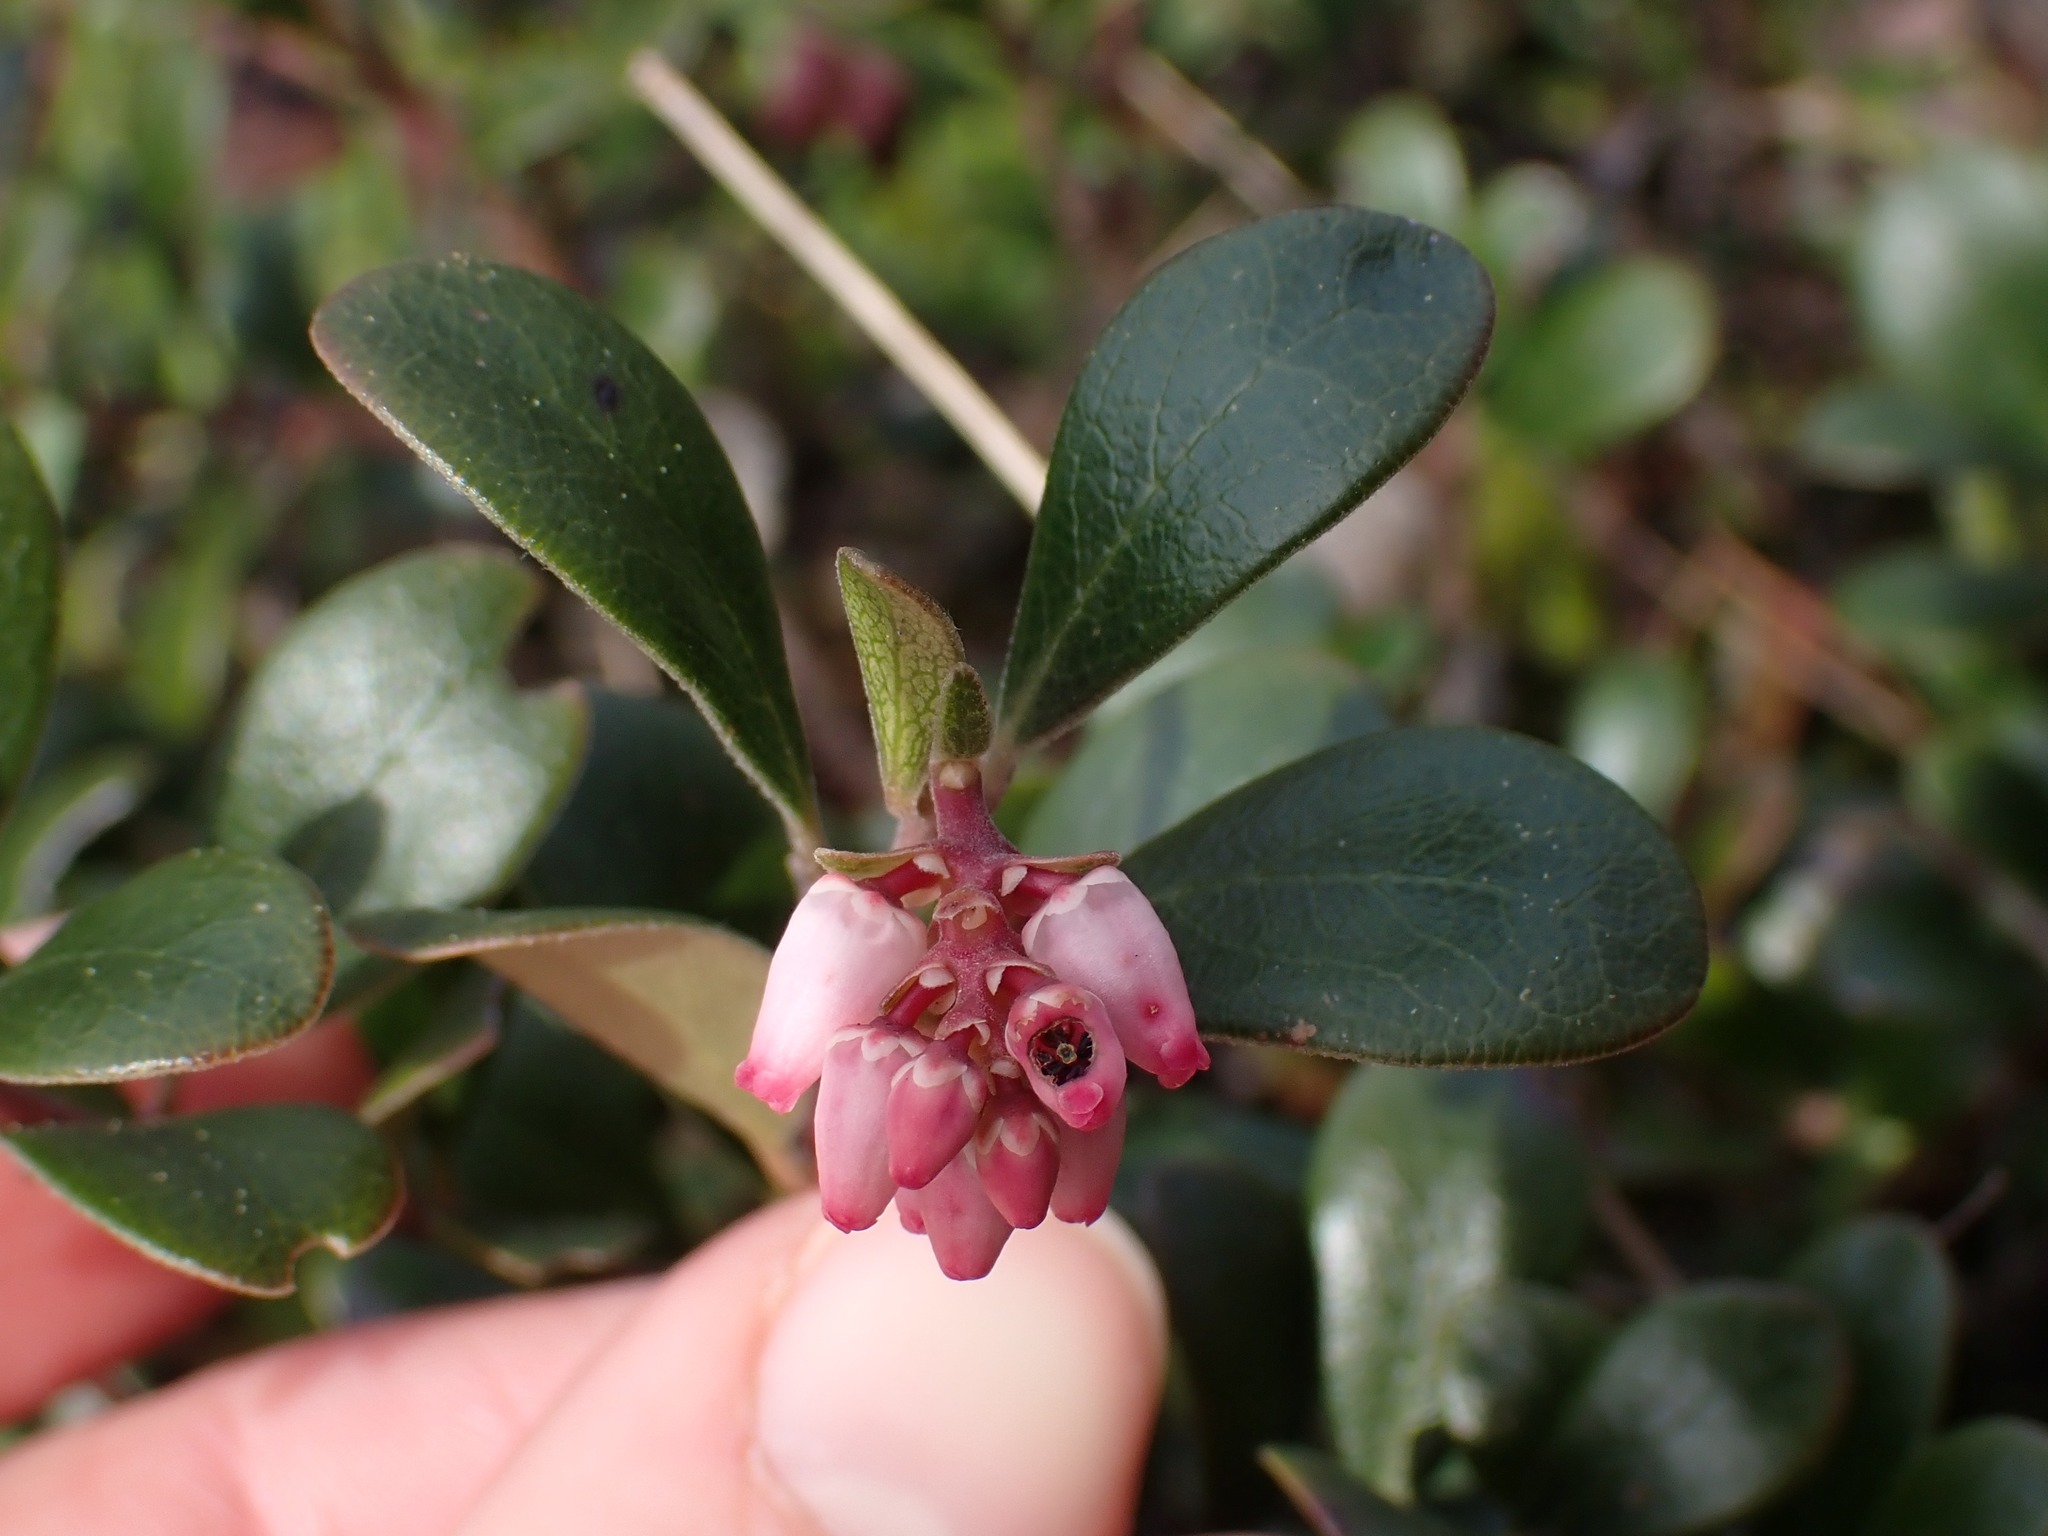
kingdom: Plantae
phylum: Tracheophyta
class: Magnoliopsida
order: Ericales
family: Ericaceae
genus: Arctostaphylos
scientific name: Arctostaphylos uva-ursi
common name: Bearberry
